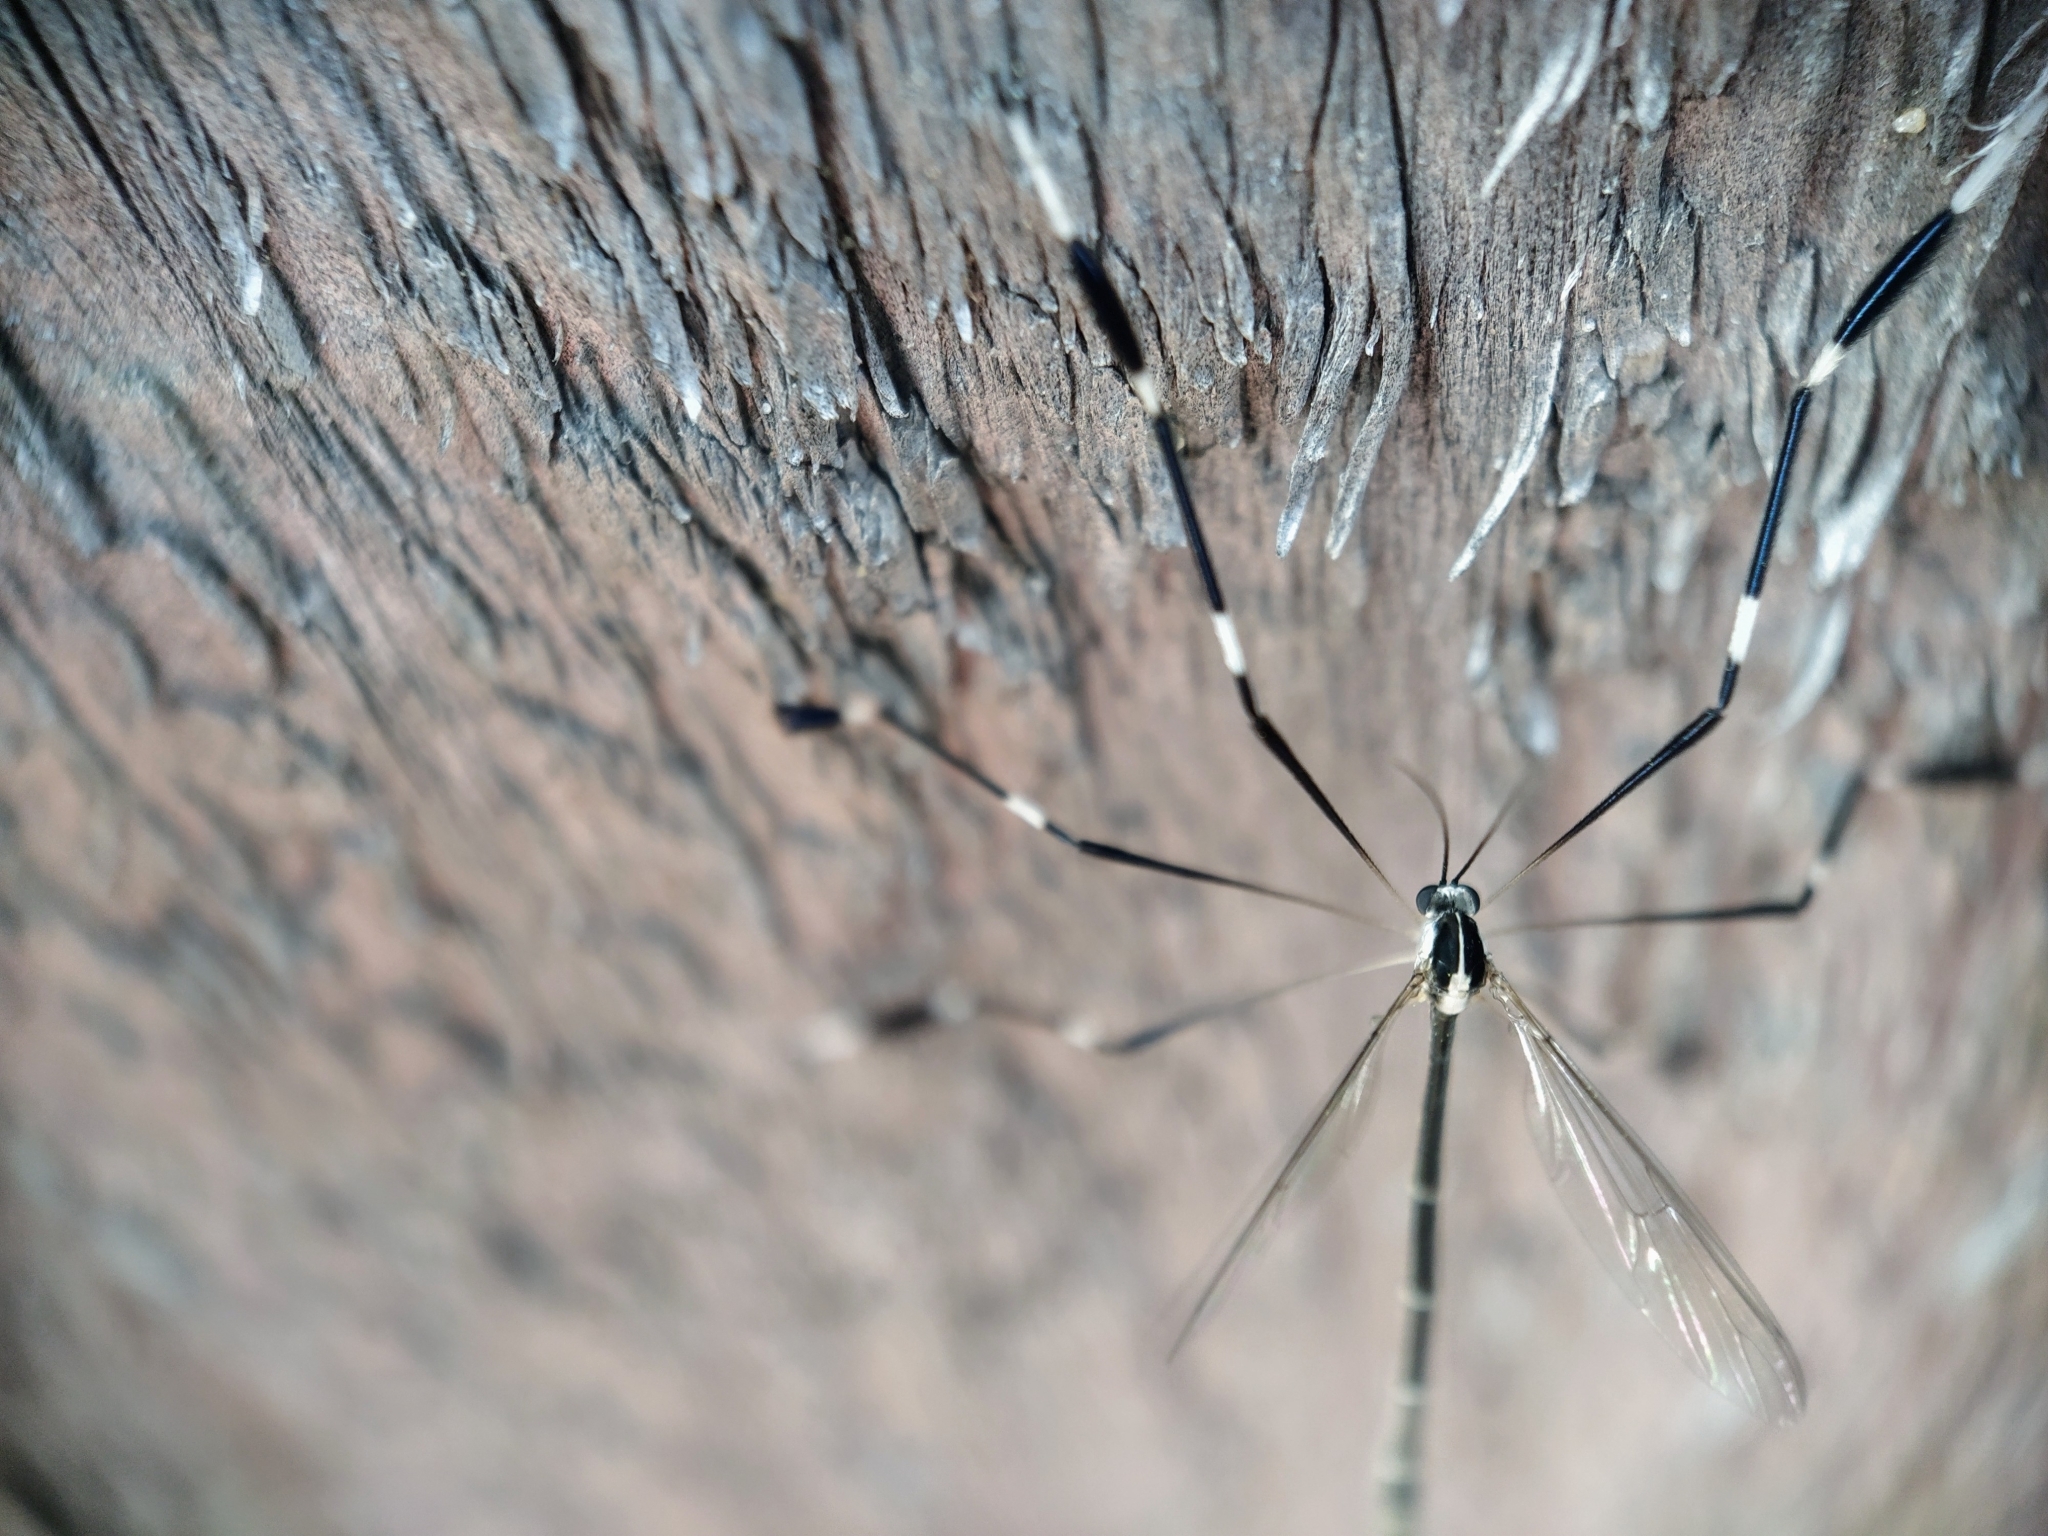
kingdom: Animalia
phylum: Arthropoda
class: Insecta
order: Diptera
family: Ptychopteridae
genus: Bittacomorpha
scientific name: Bittacomorpha clavipes
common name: Eastern phantom crane fly
